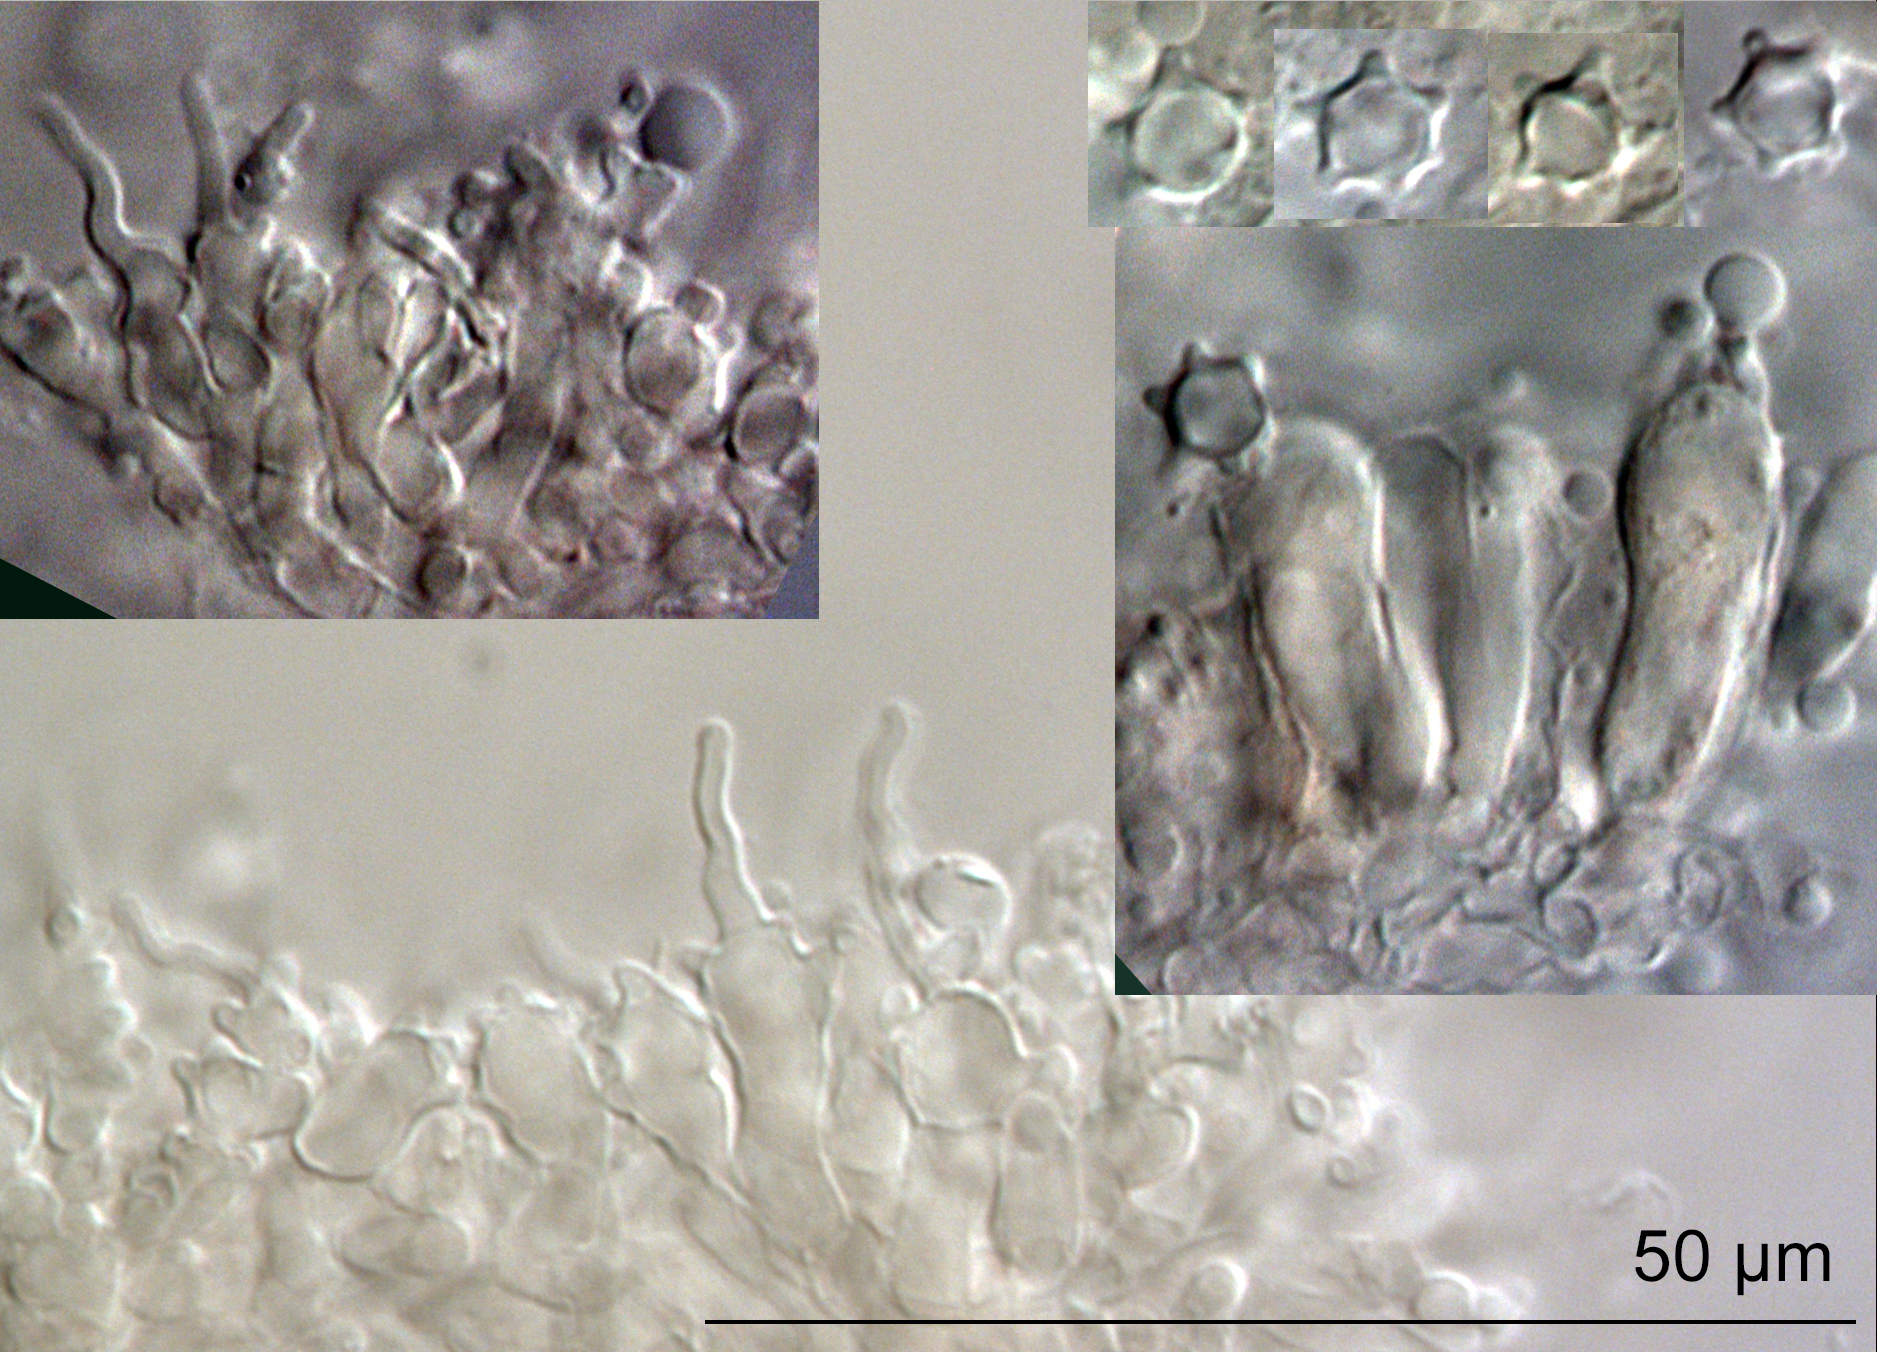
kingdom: Fungi
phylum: Basidiomycota
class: Agaricomycetes
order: Agaricales
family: Tricholomataceae
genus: Mycenella
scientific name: Mycenella minima
